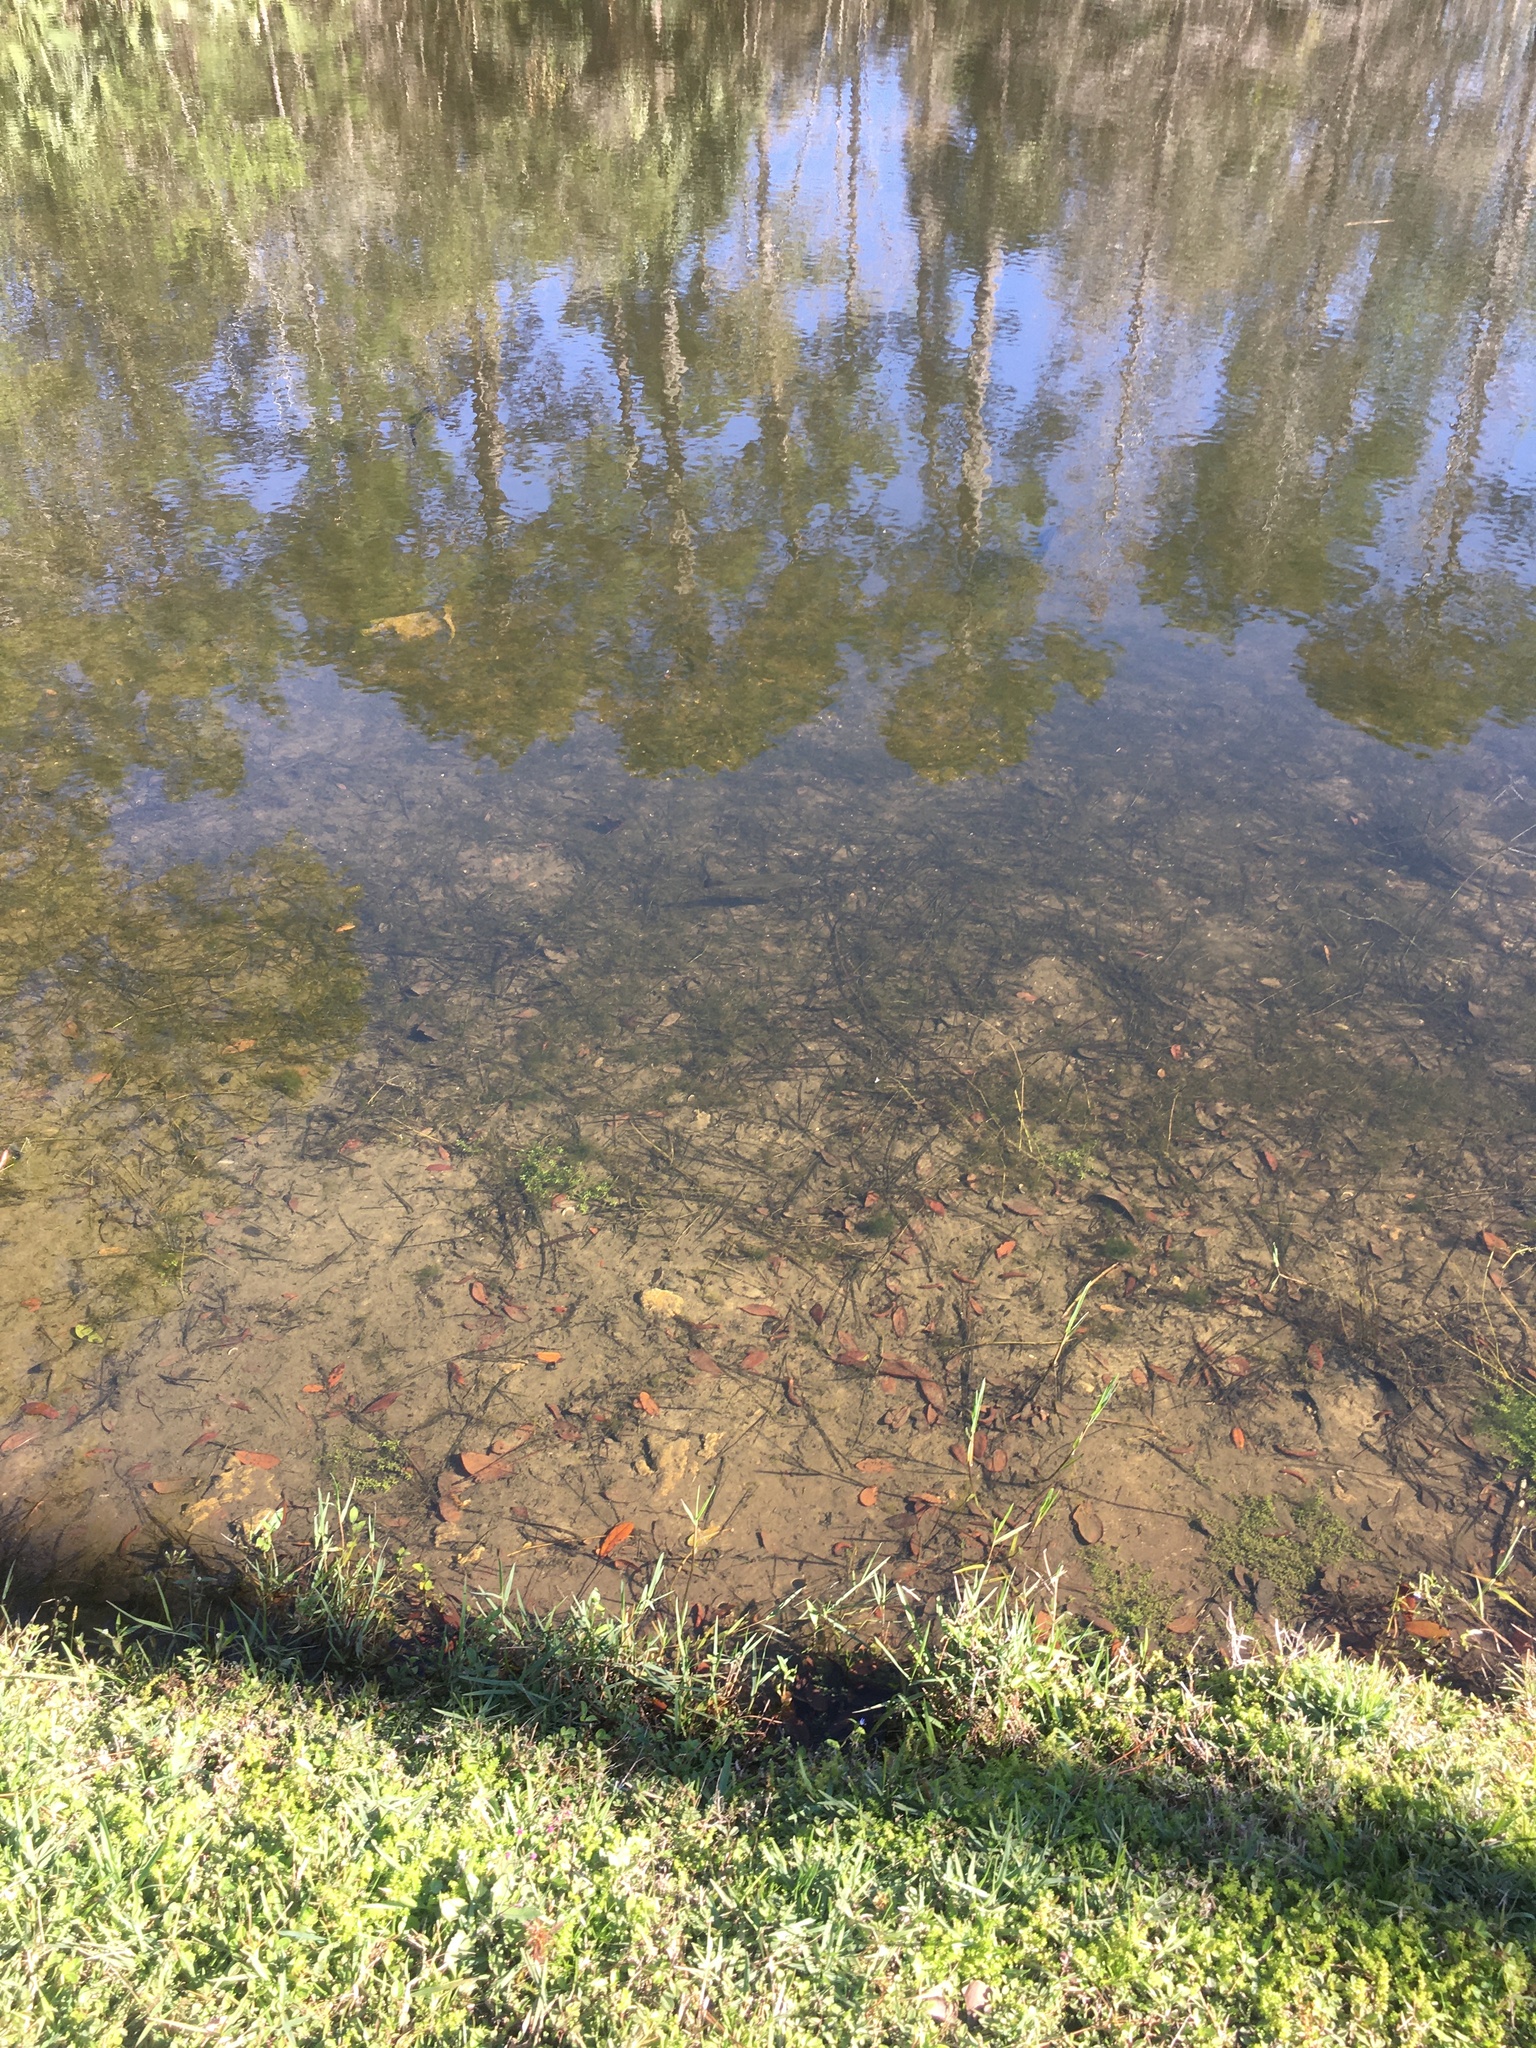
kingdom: Animalia
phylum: Chordata
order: Perciformes
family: Centrarchidae
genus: Micropterus
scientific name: Micropterus salmoides
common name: Largemouth bass
